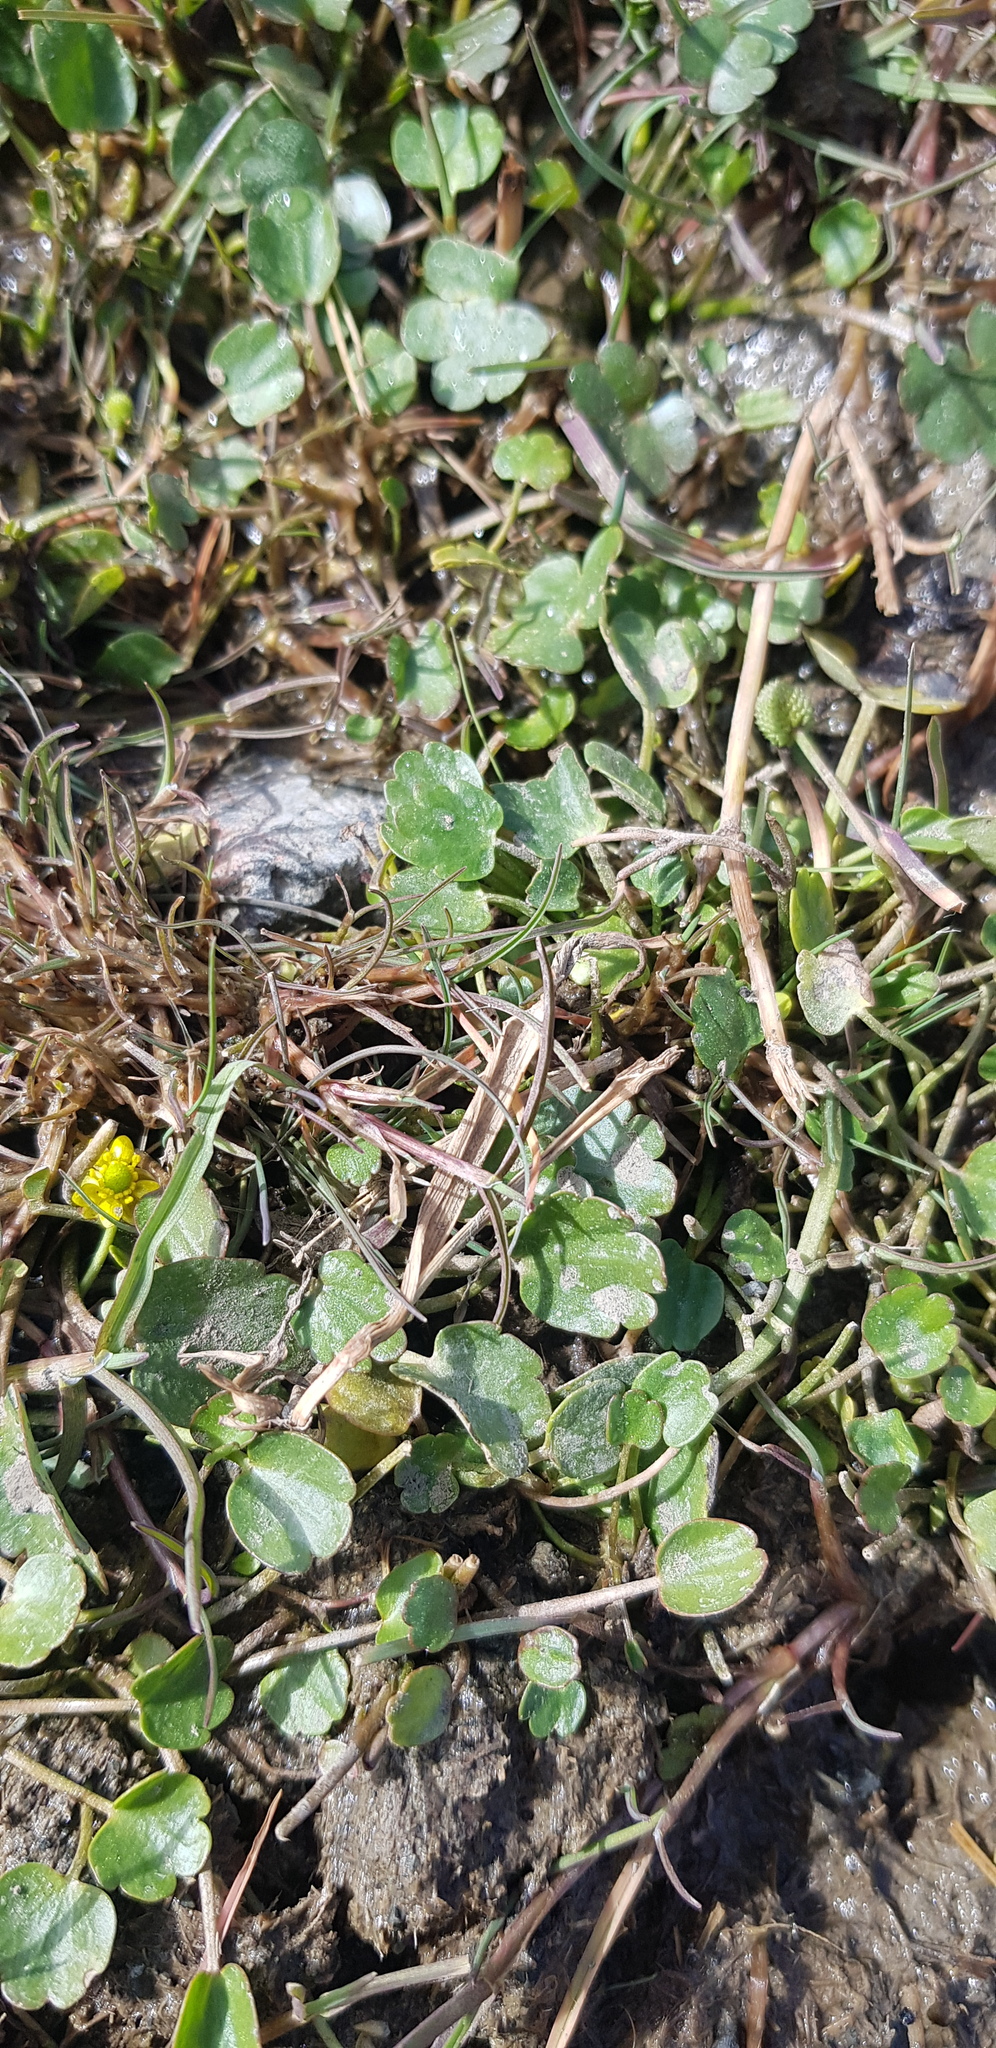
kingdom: Plantae
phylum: Tracheophyta
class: Magnoliopsida
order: Ranunculales
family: Ranunculaceae
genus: Halerpestes
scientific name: Halerpestes sarmentosus
